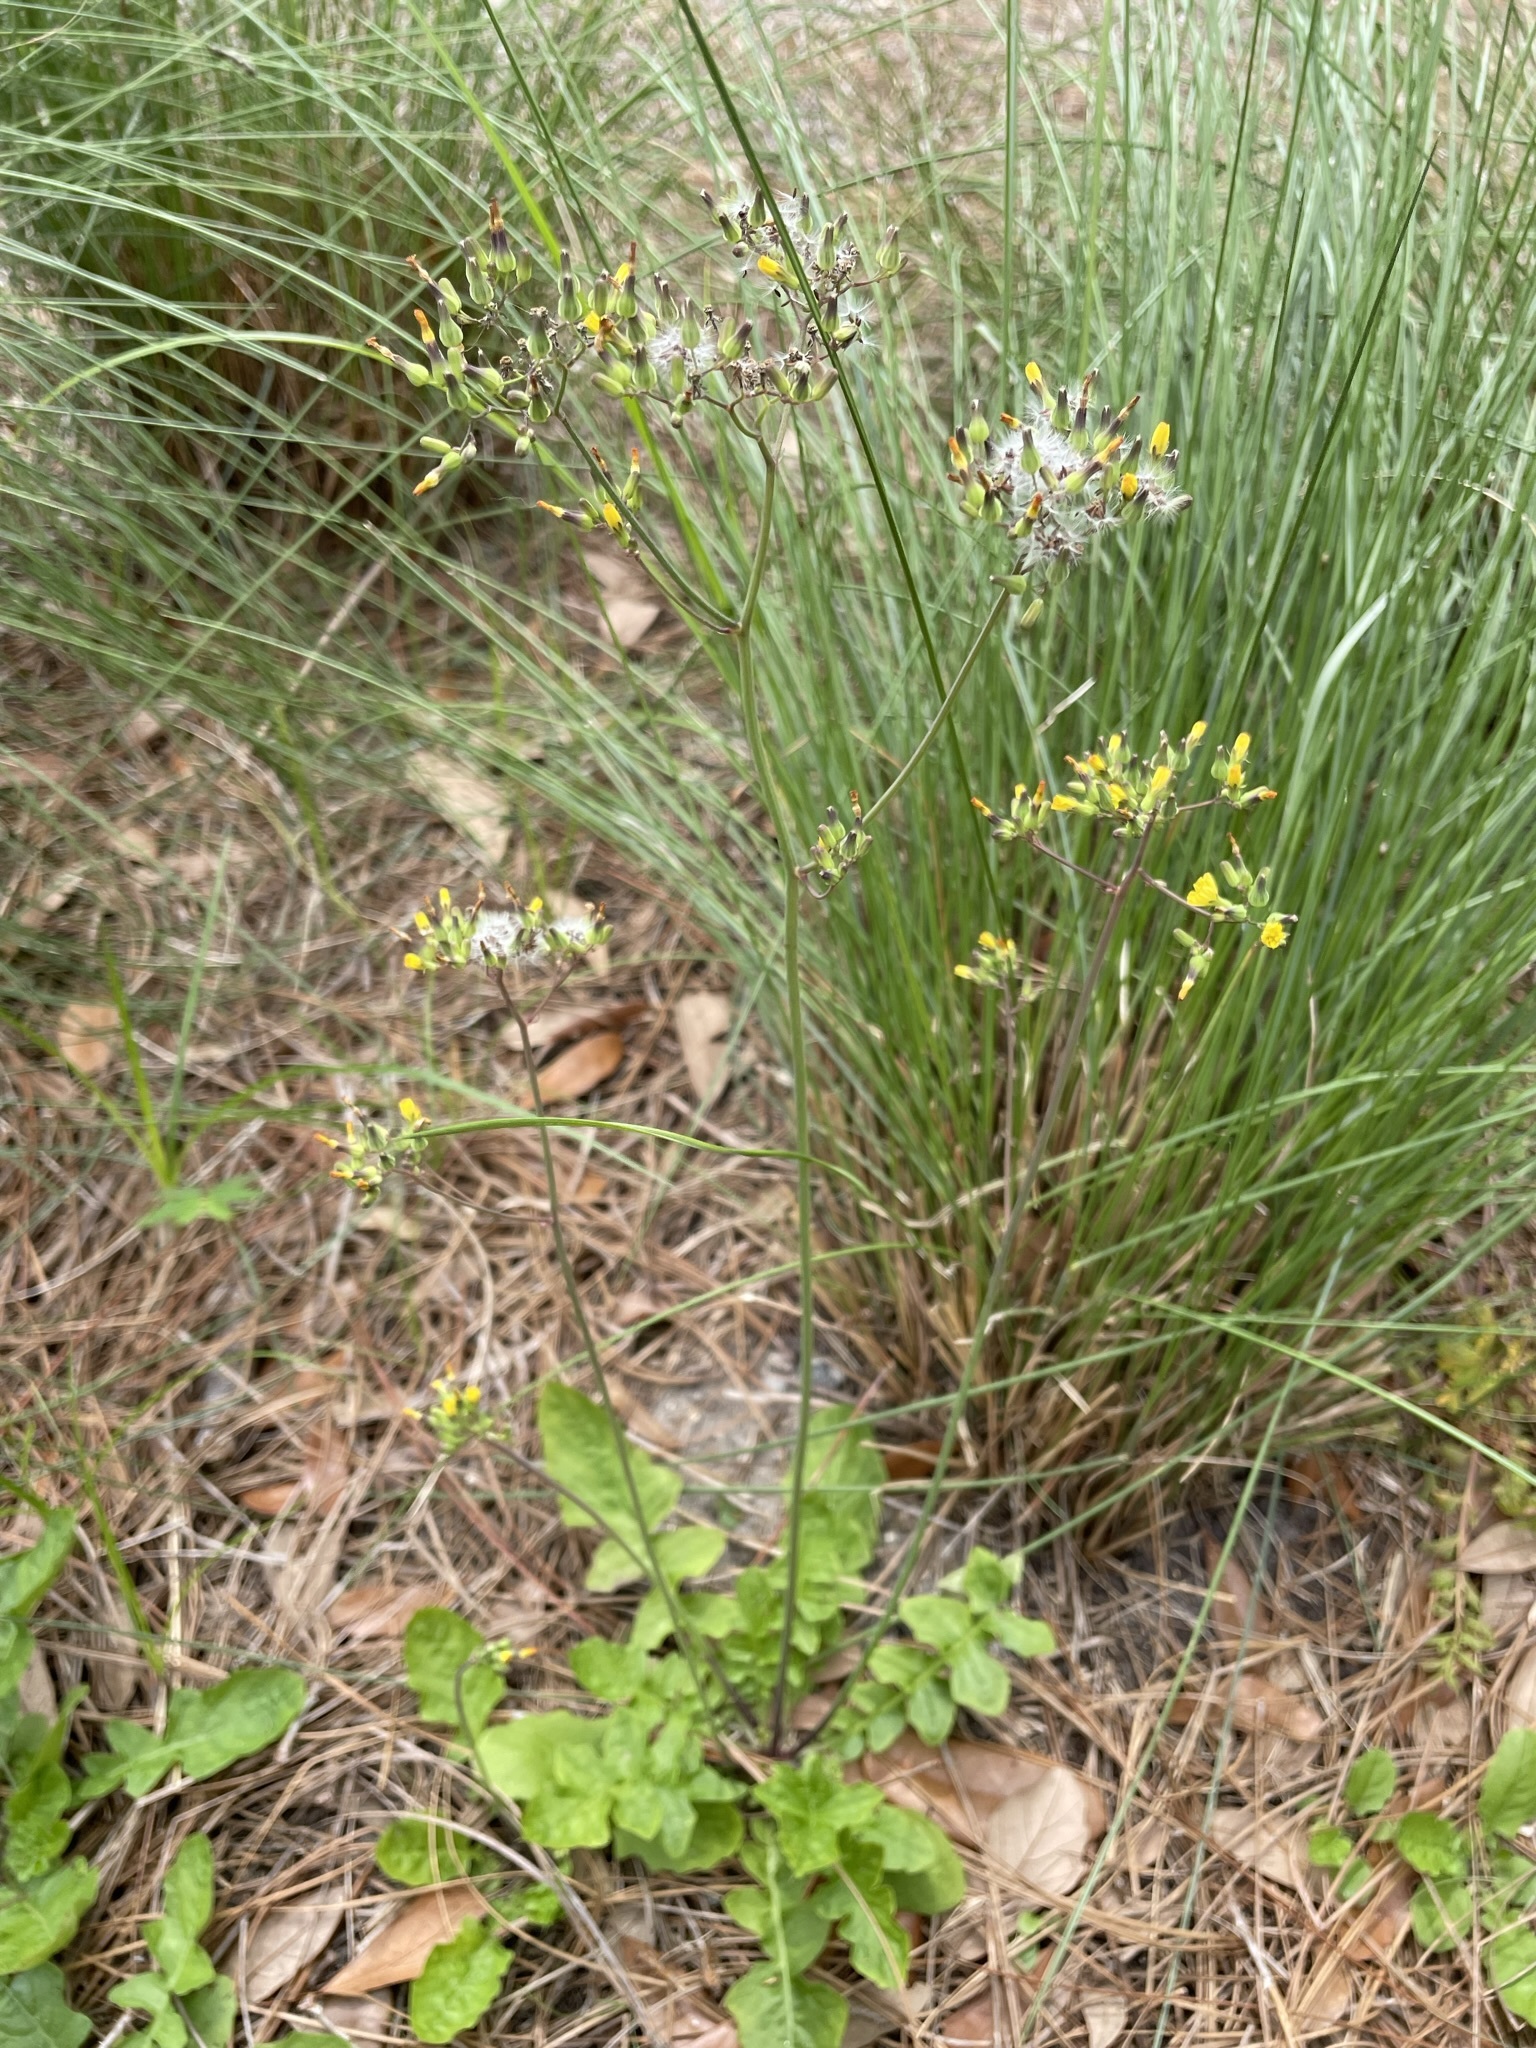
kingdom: Plantae
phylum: Tracheophyta
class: Magnoliopsida
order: Asterales
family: Asteraceae
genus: Youngia
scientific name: Youngia japonica
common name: Oriental false hawksbeard
